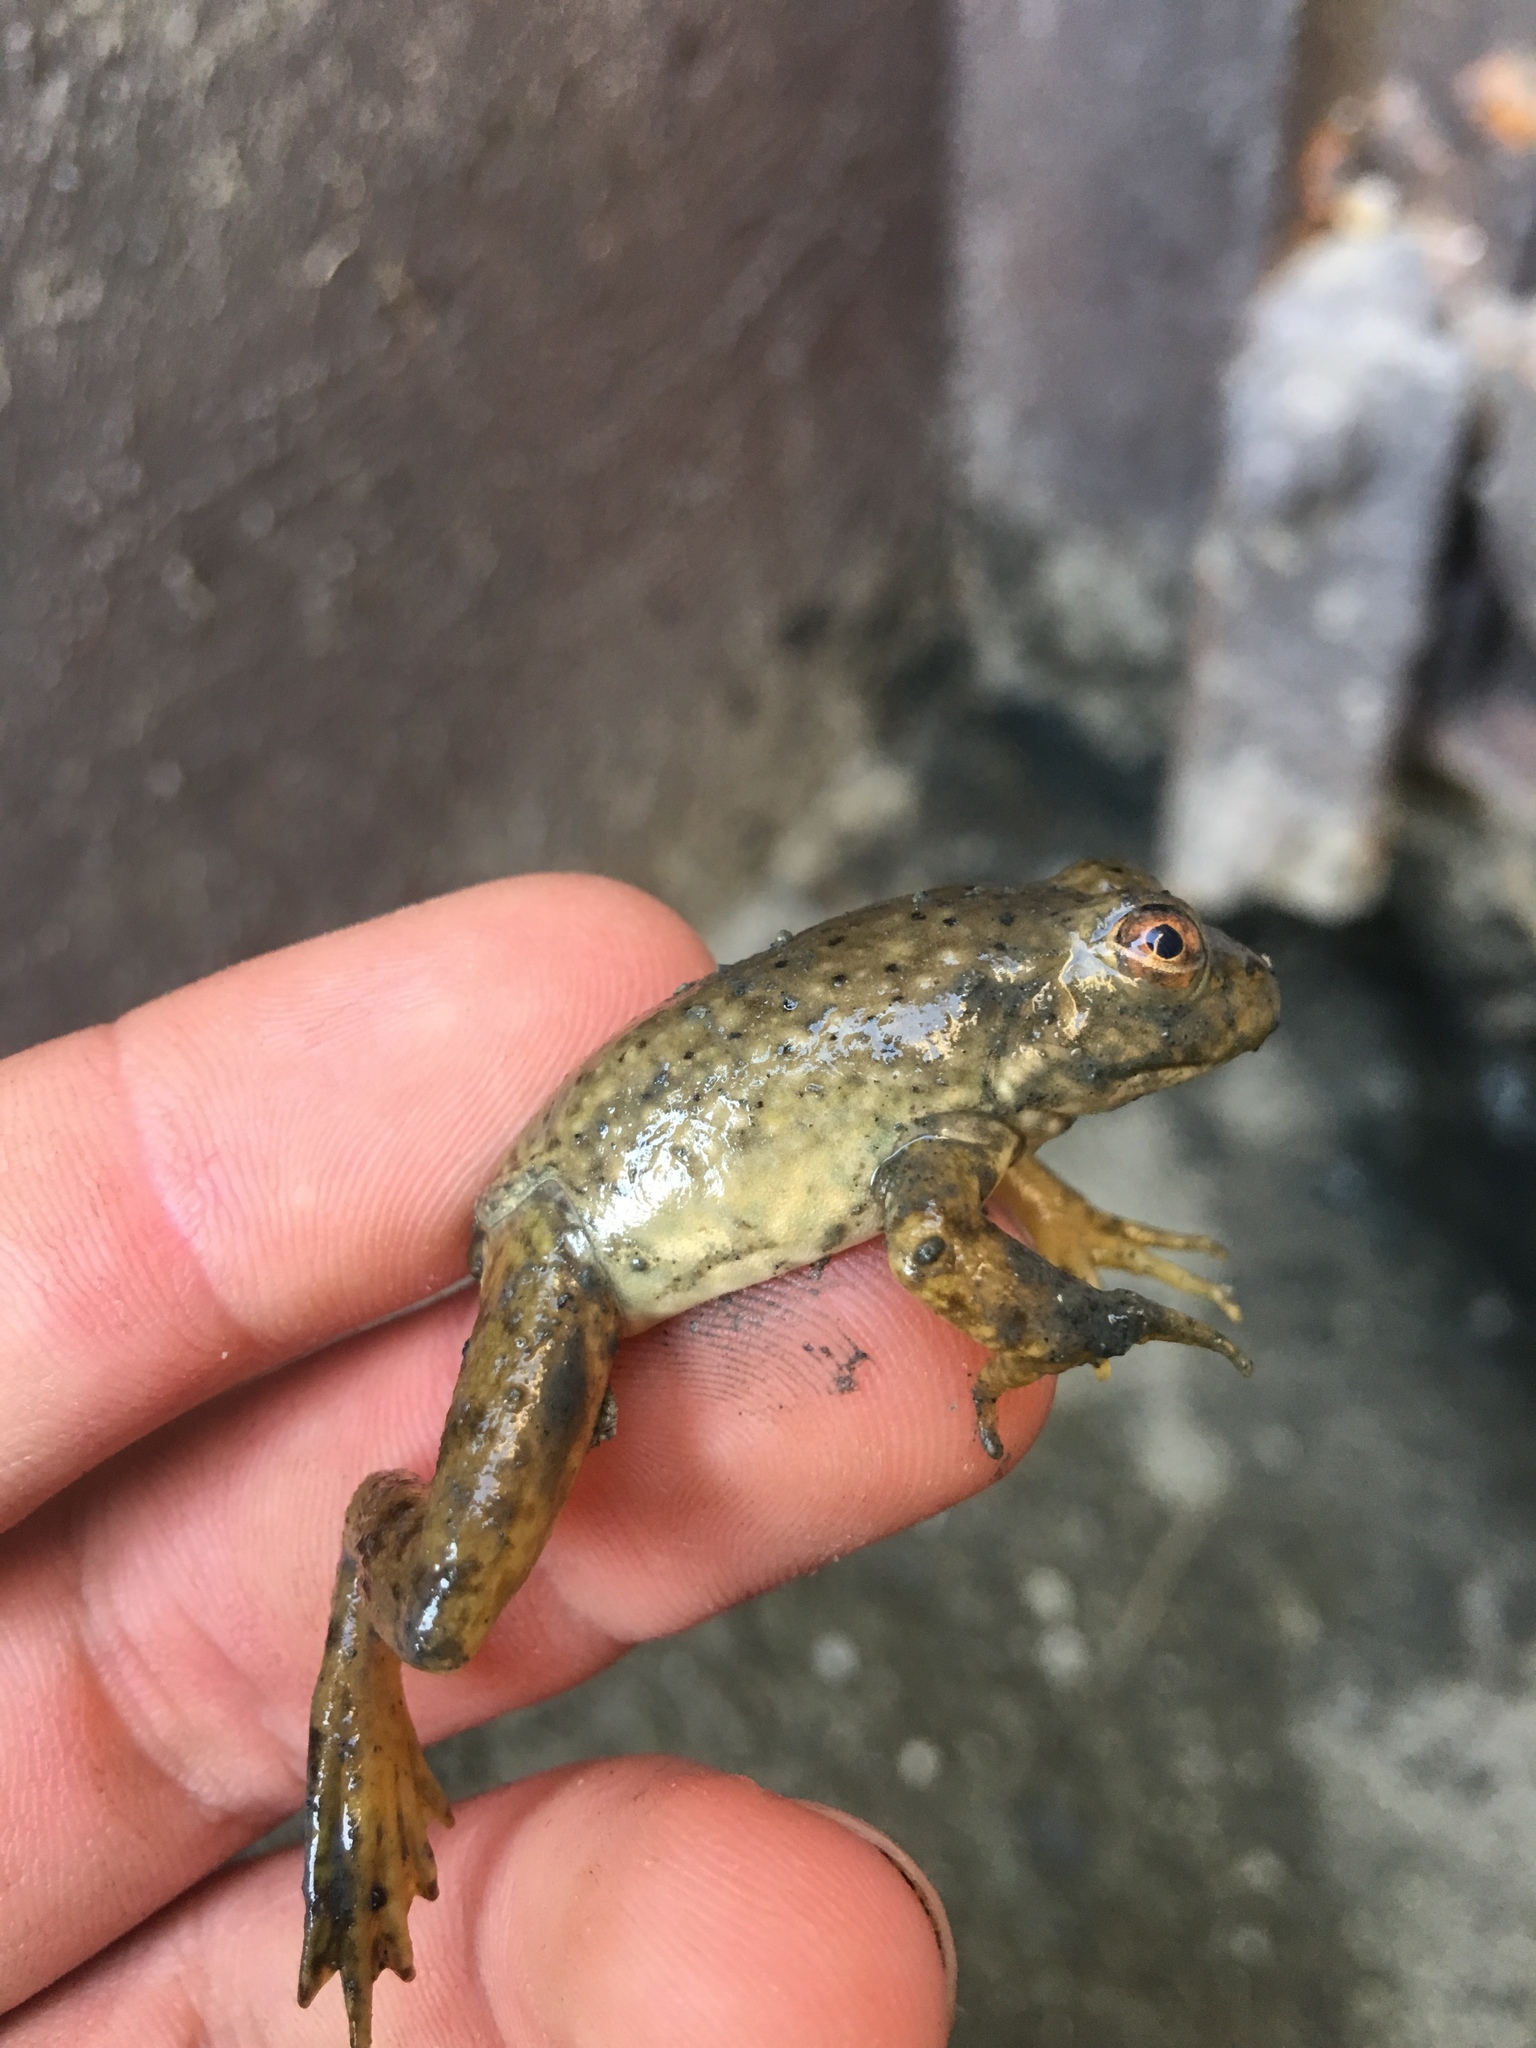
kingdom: Animalia
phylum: Chordata
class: Amphibia
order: Anura
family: Ranidae
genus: Lithobates
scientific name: Lithobates catesbeianus
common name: American bullfrog
